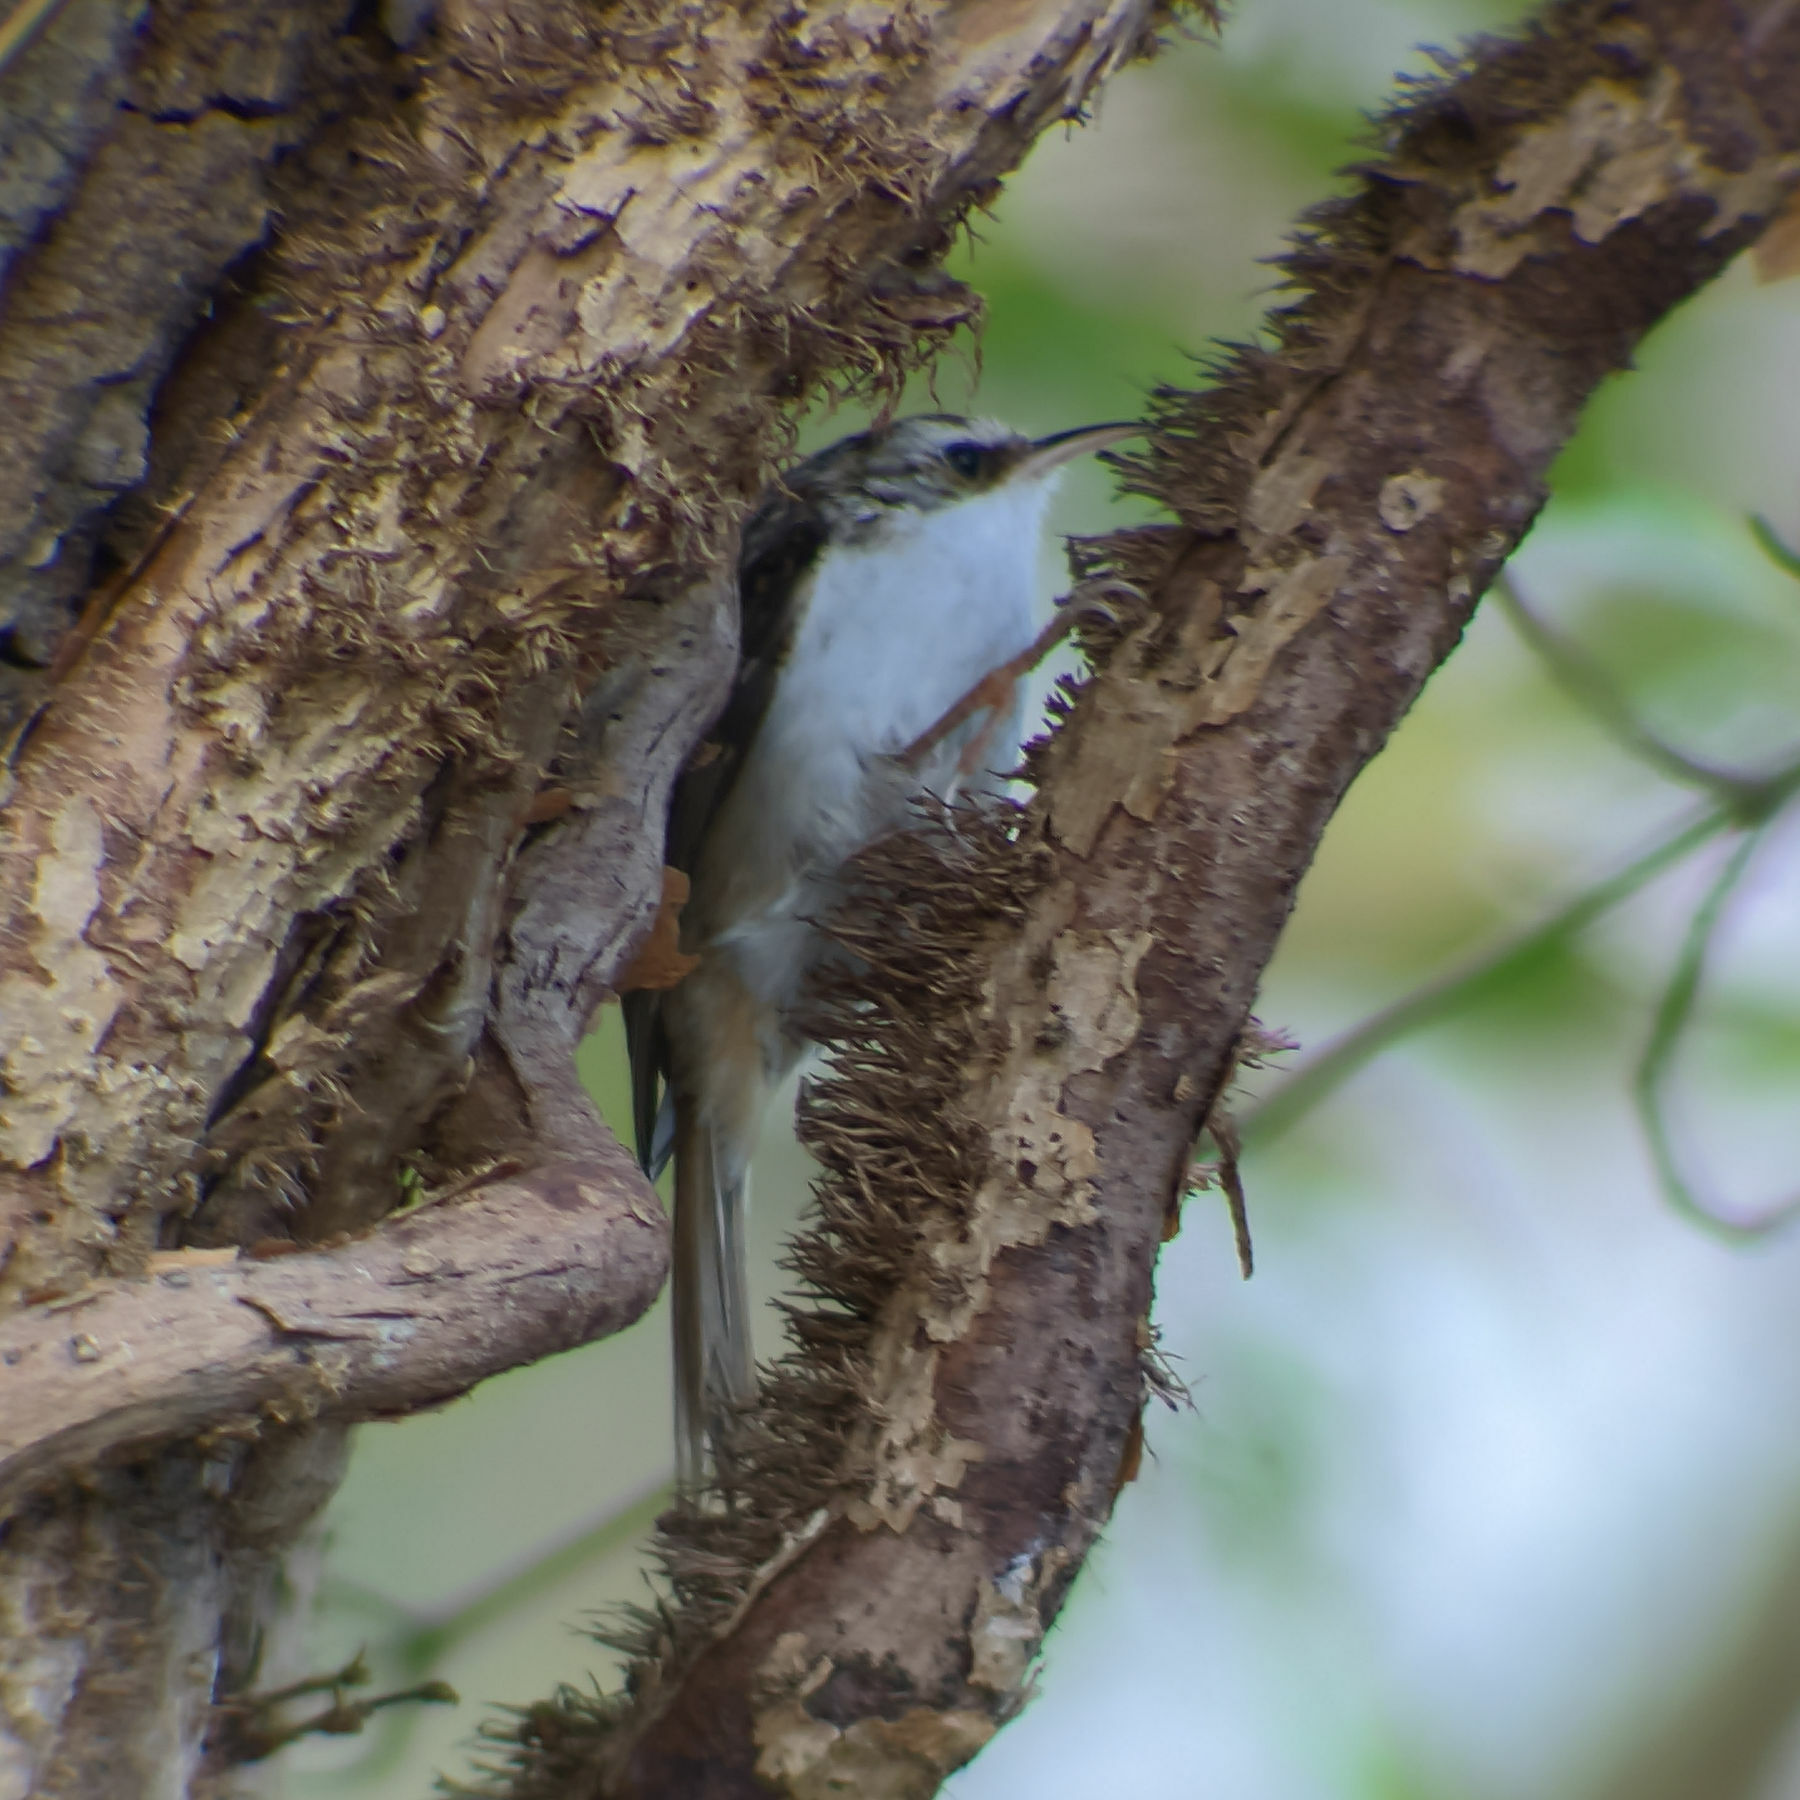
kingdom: Animalia
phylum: Chordata
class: Aves
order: Passeriformes
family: Certhiidae
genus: Certhia
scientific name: Certhia brachydactyla
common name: Short-toed treecreeper
